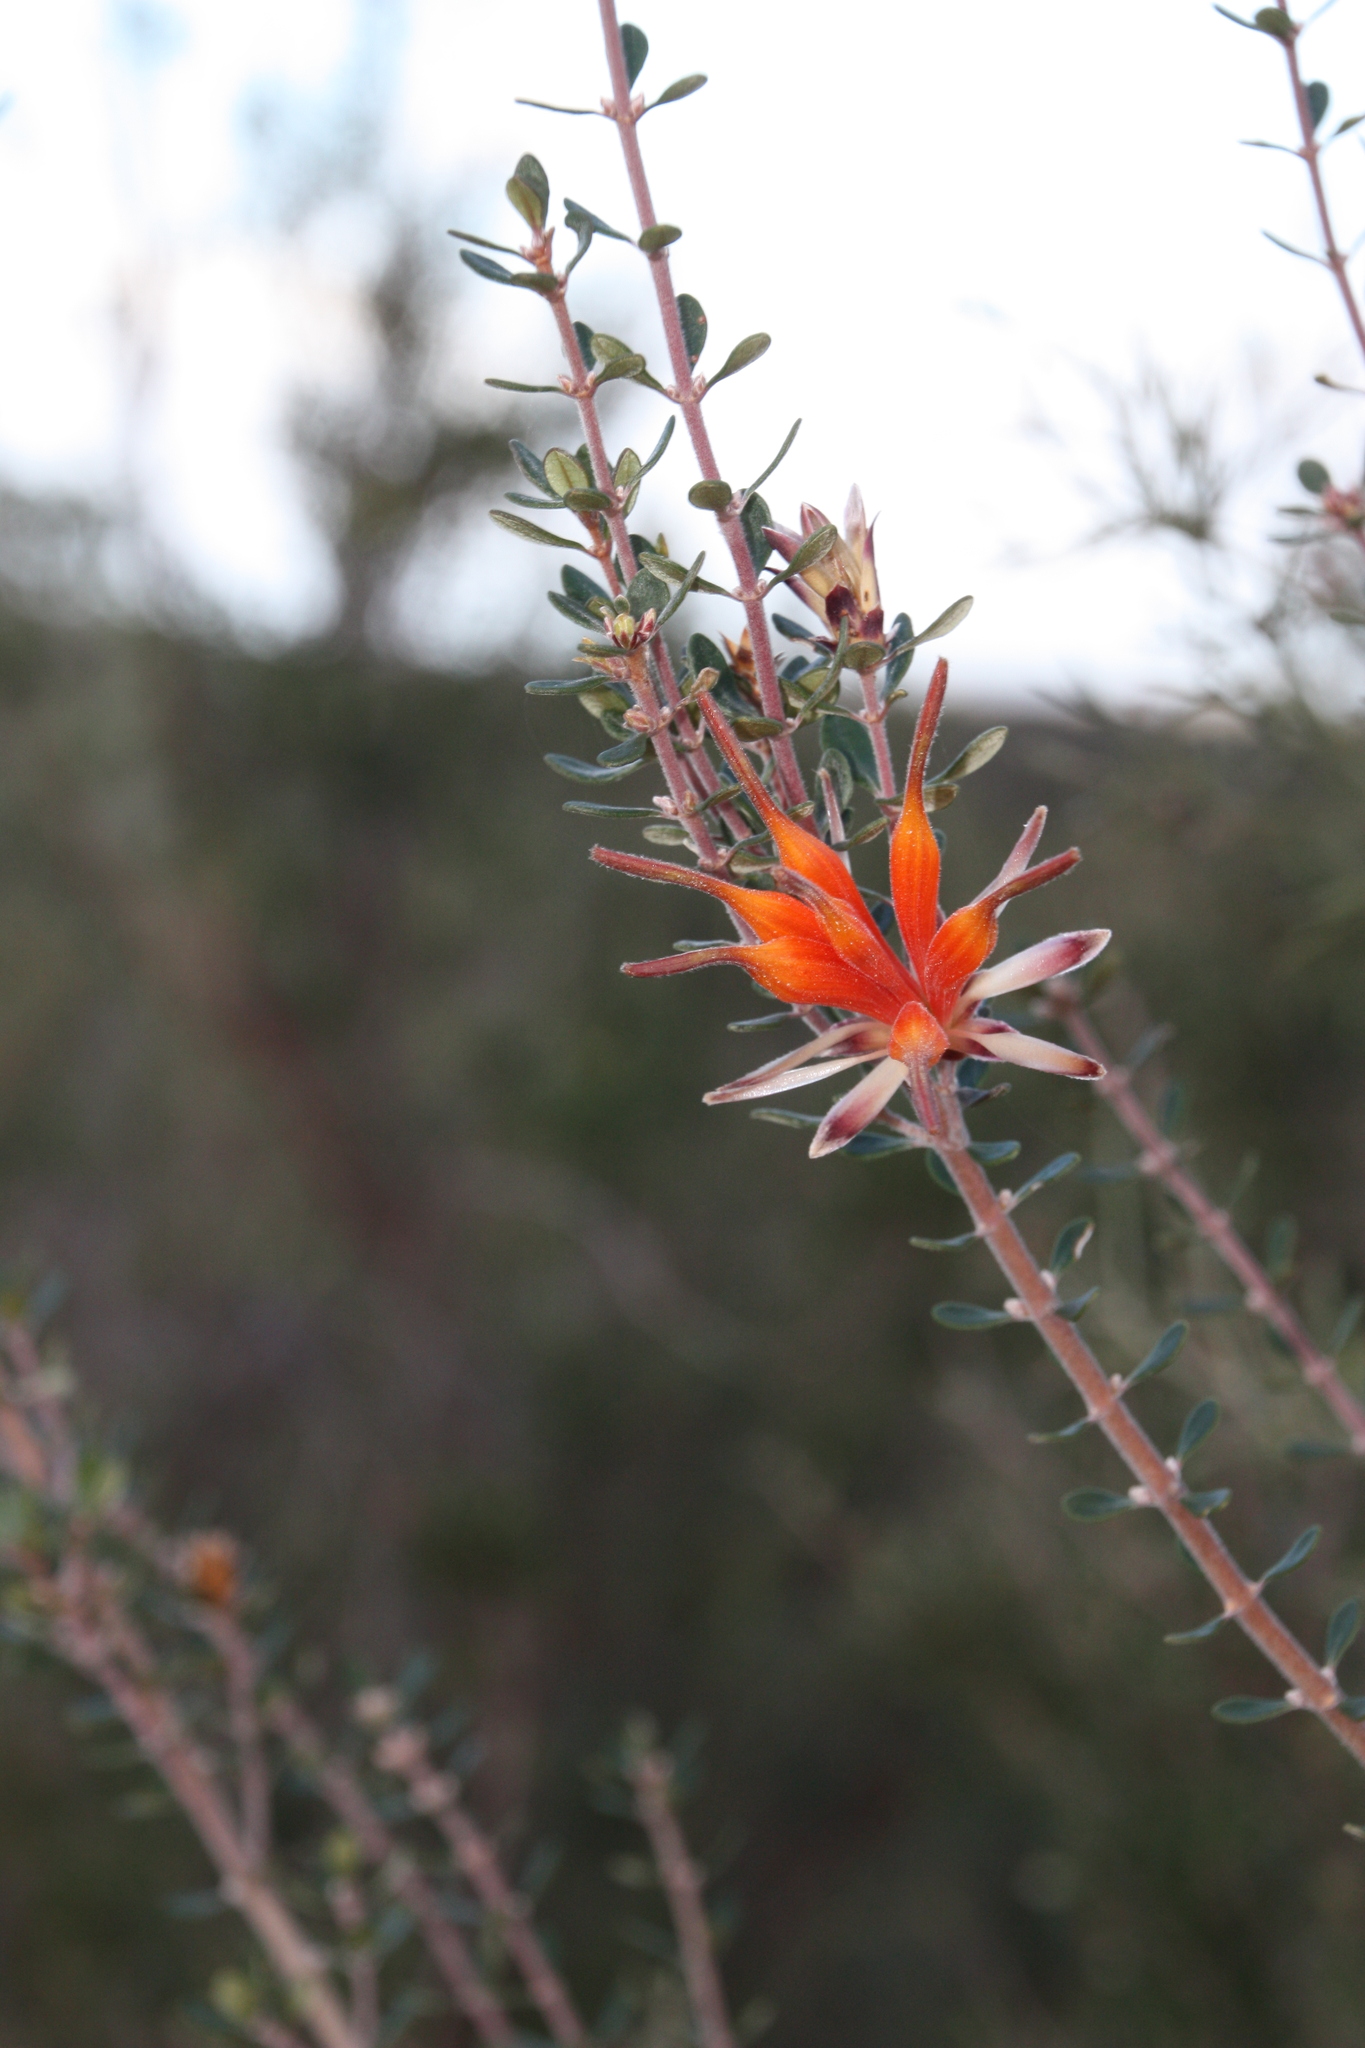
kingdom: Plantae
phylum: Tracheophyta
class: Magnoliopsida
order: Proteales
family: Proteaceae
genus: Lambertia
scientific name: Lambertia inermis
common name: Chittick
